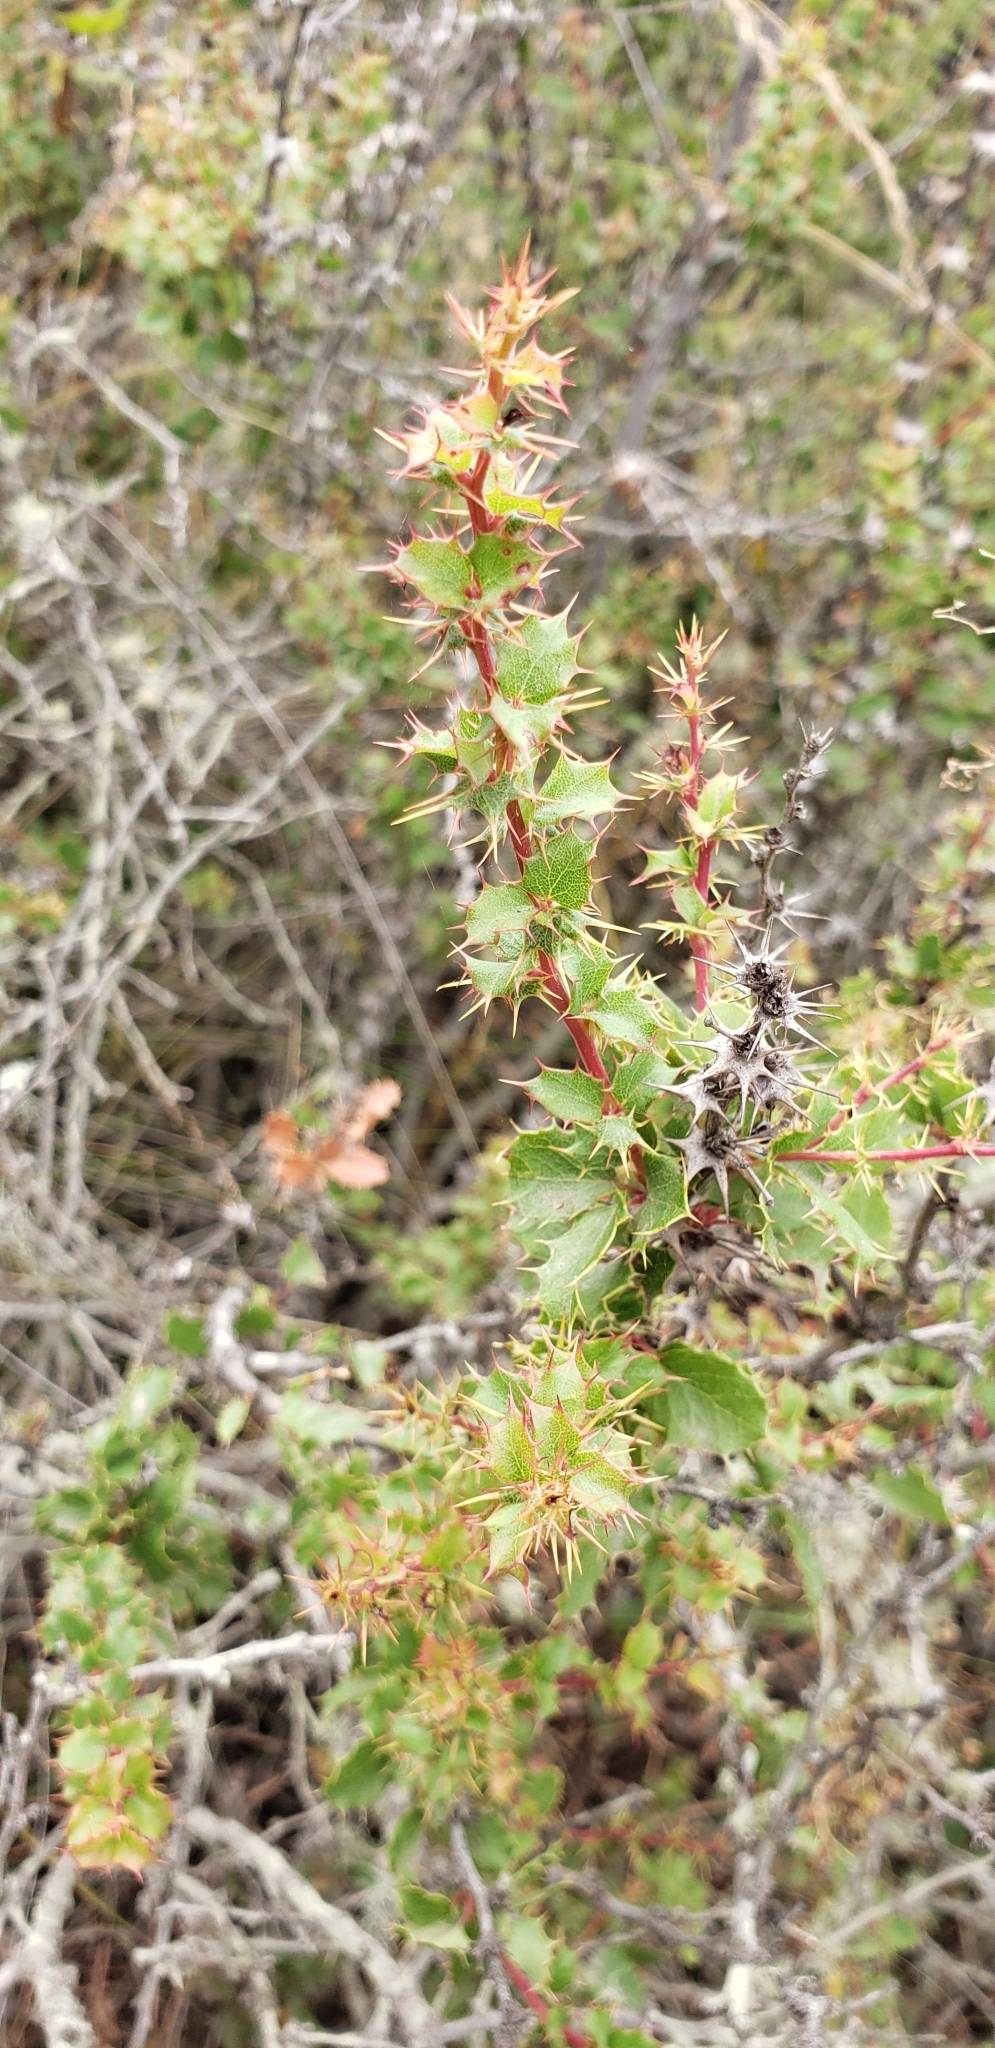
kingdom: Plantae
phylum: Tracheophyta
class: Magnoliopsida
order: Ranunculales
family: Berberidaceae
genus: Berberis
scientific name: Berberis actinacantha
